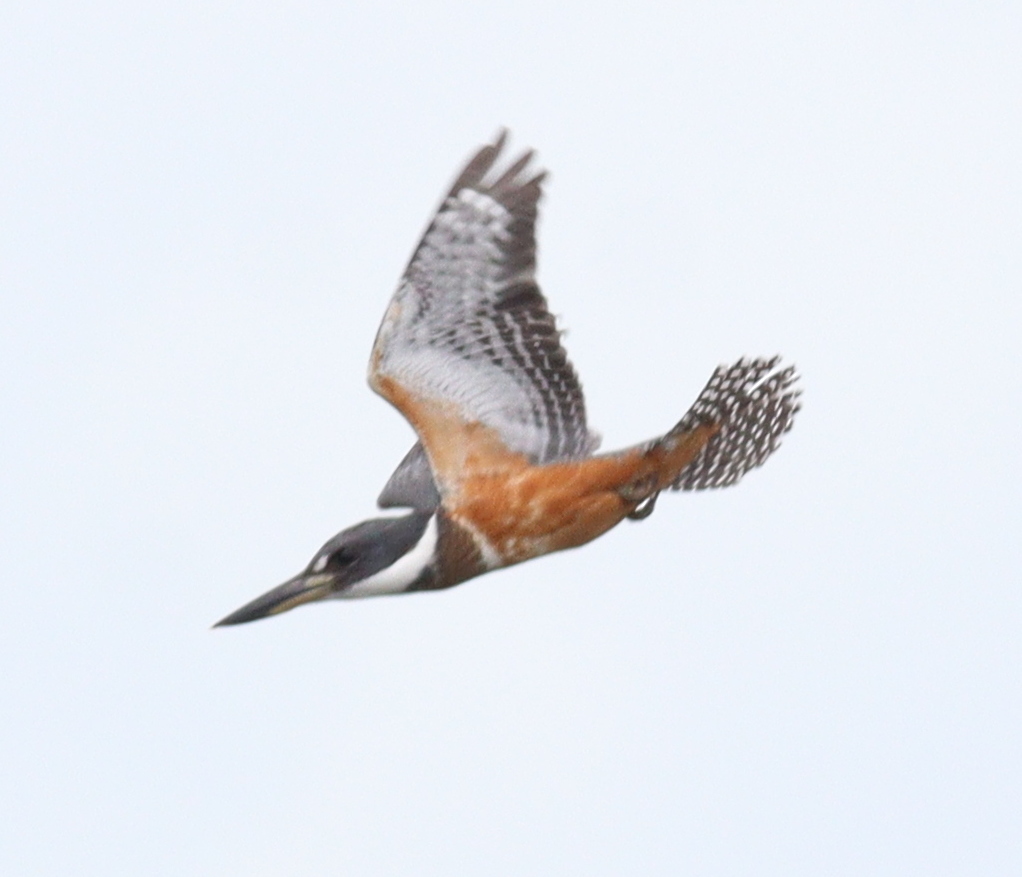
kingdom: Animalia
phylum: Chordata
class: Aves
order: Coraciiformes
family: Alcedinidae
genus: Megaceryle
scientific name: Megaceryle torquata
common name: Ringed kingfisher
